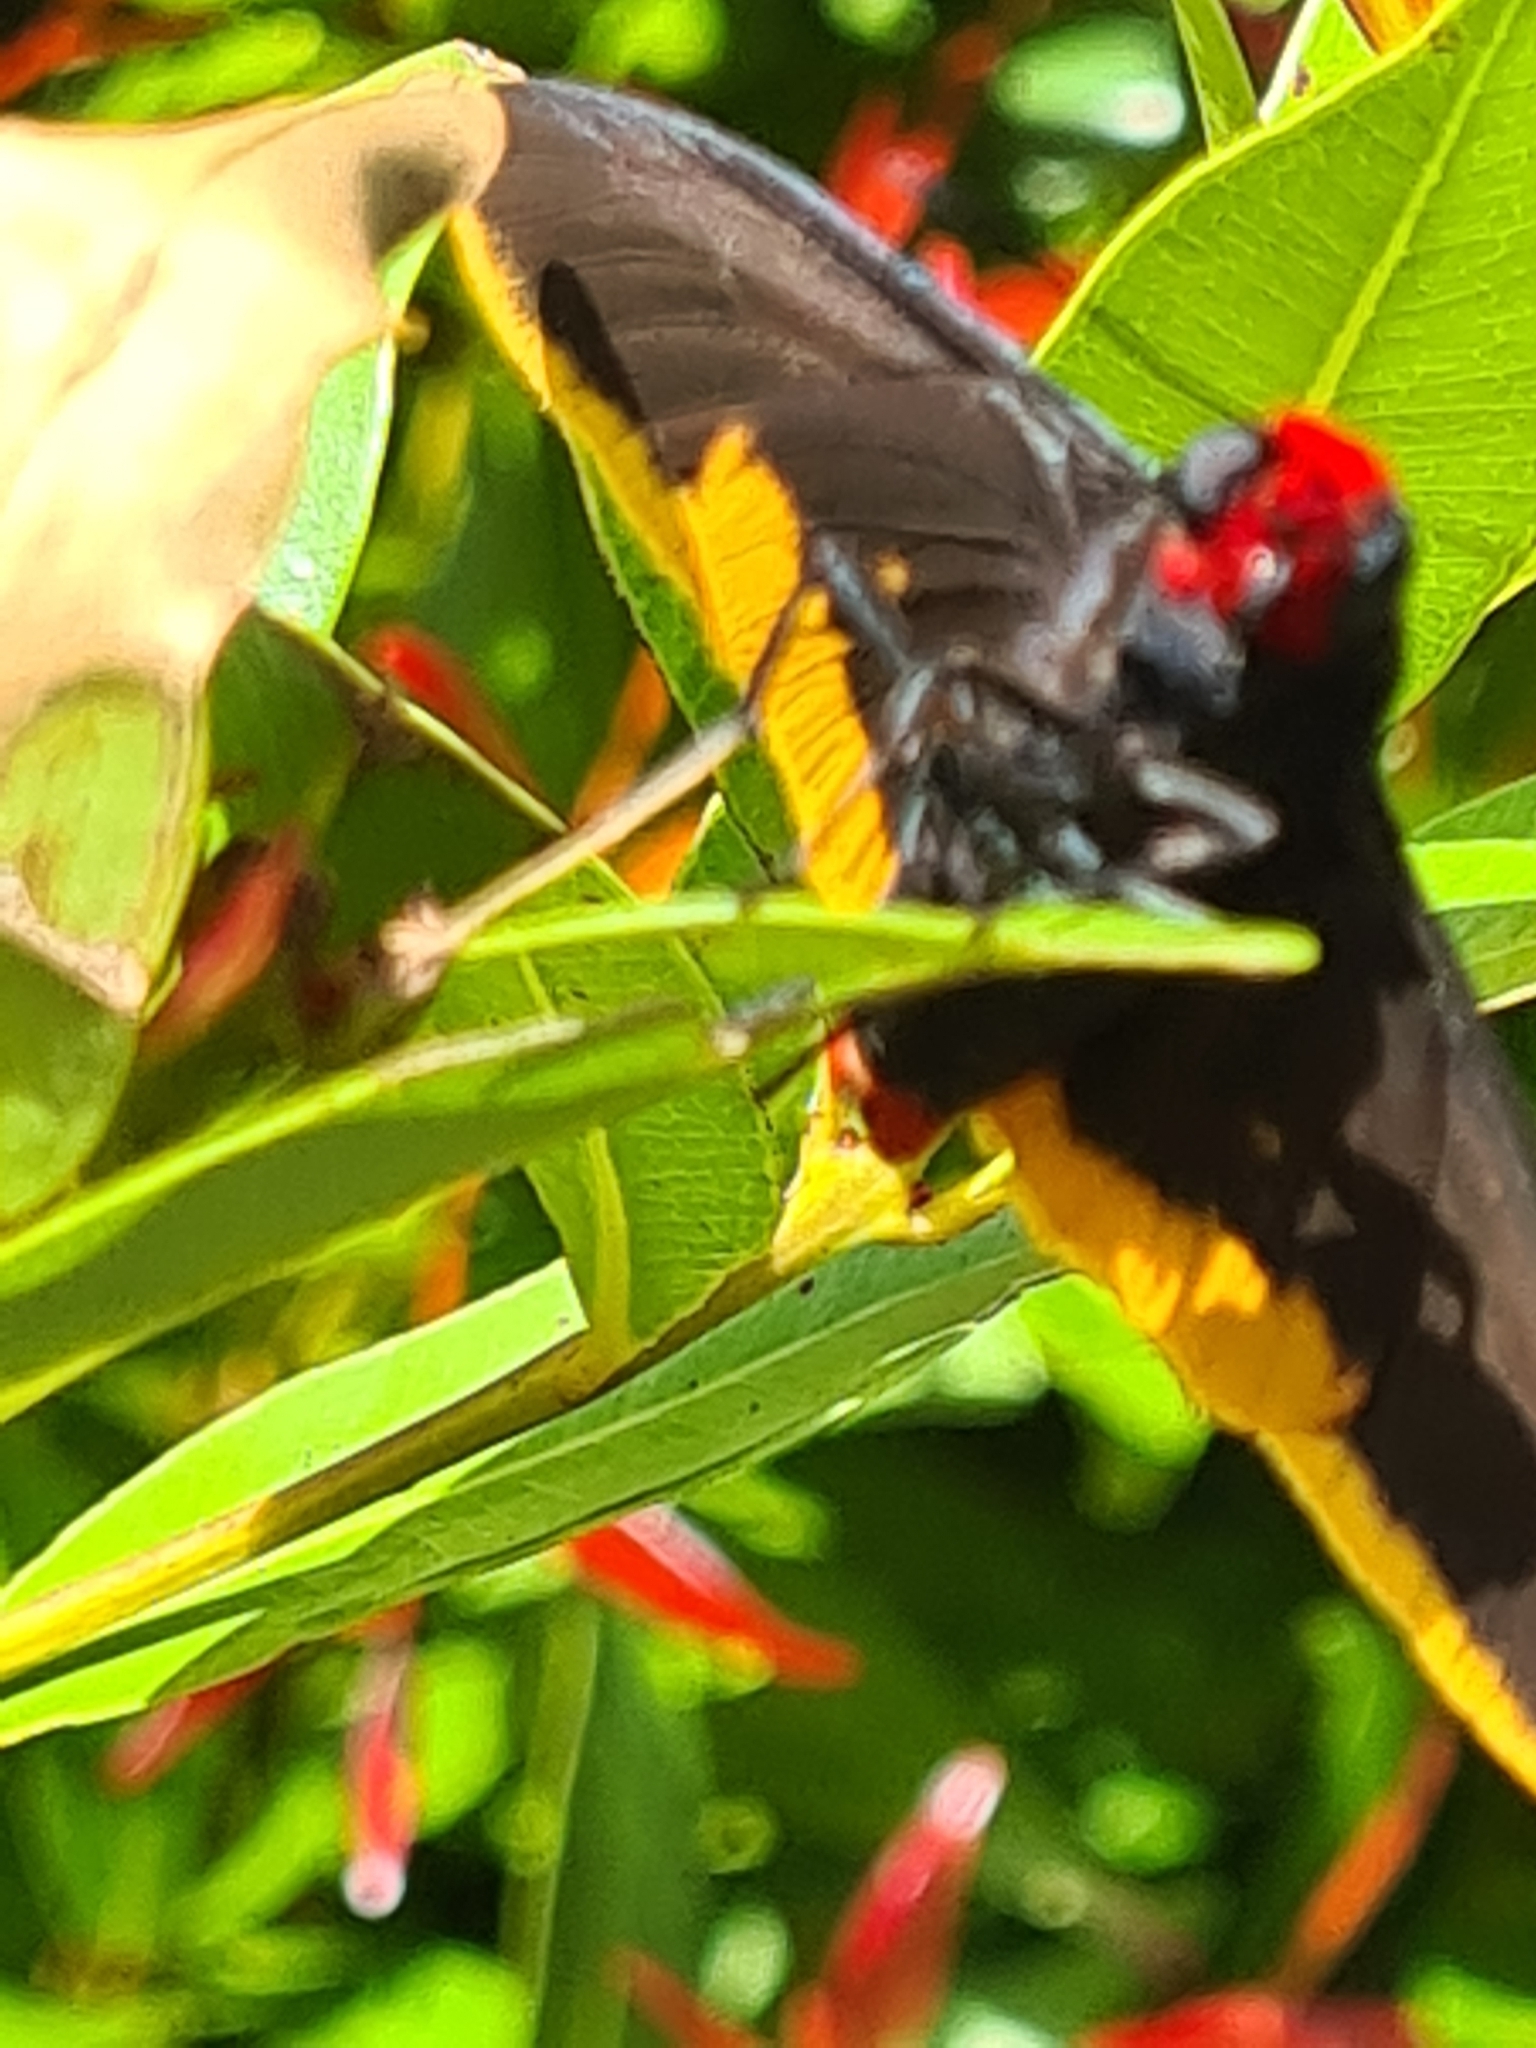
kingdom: Animalia
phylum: Arthropoda
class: Insecta
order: Lepidoptera
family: Hesperiidae
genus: Pyrrhopyge
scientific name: Pyrrhopyge amyclas
